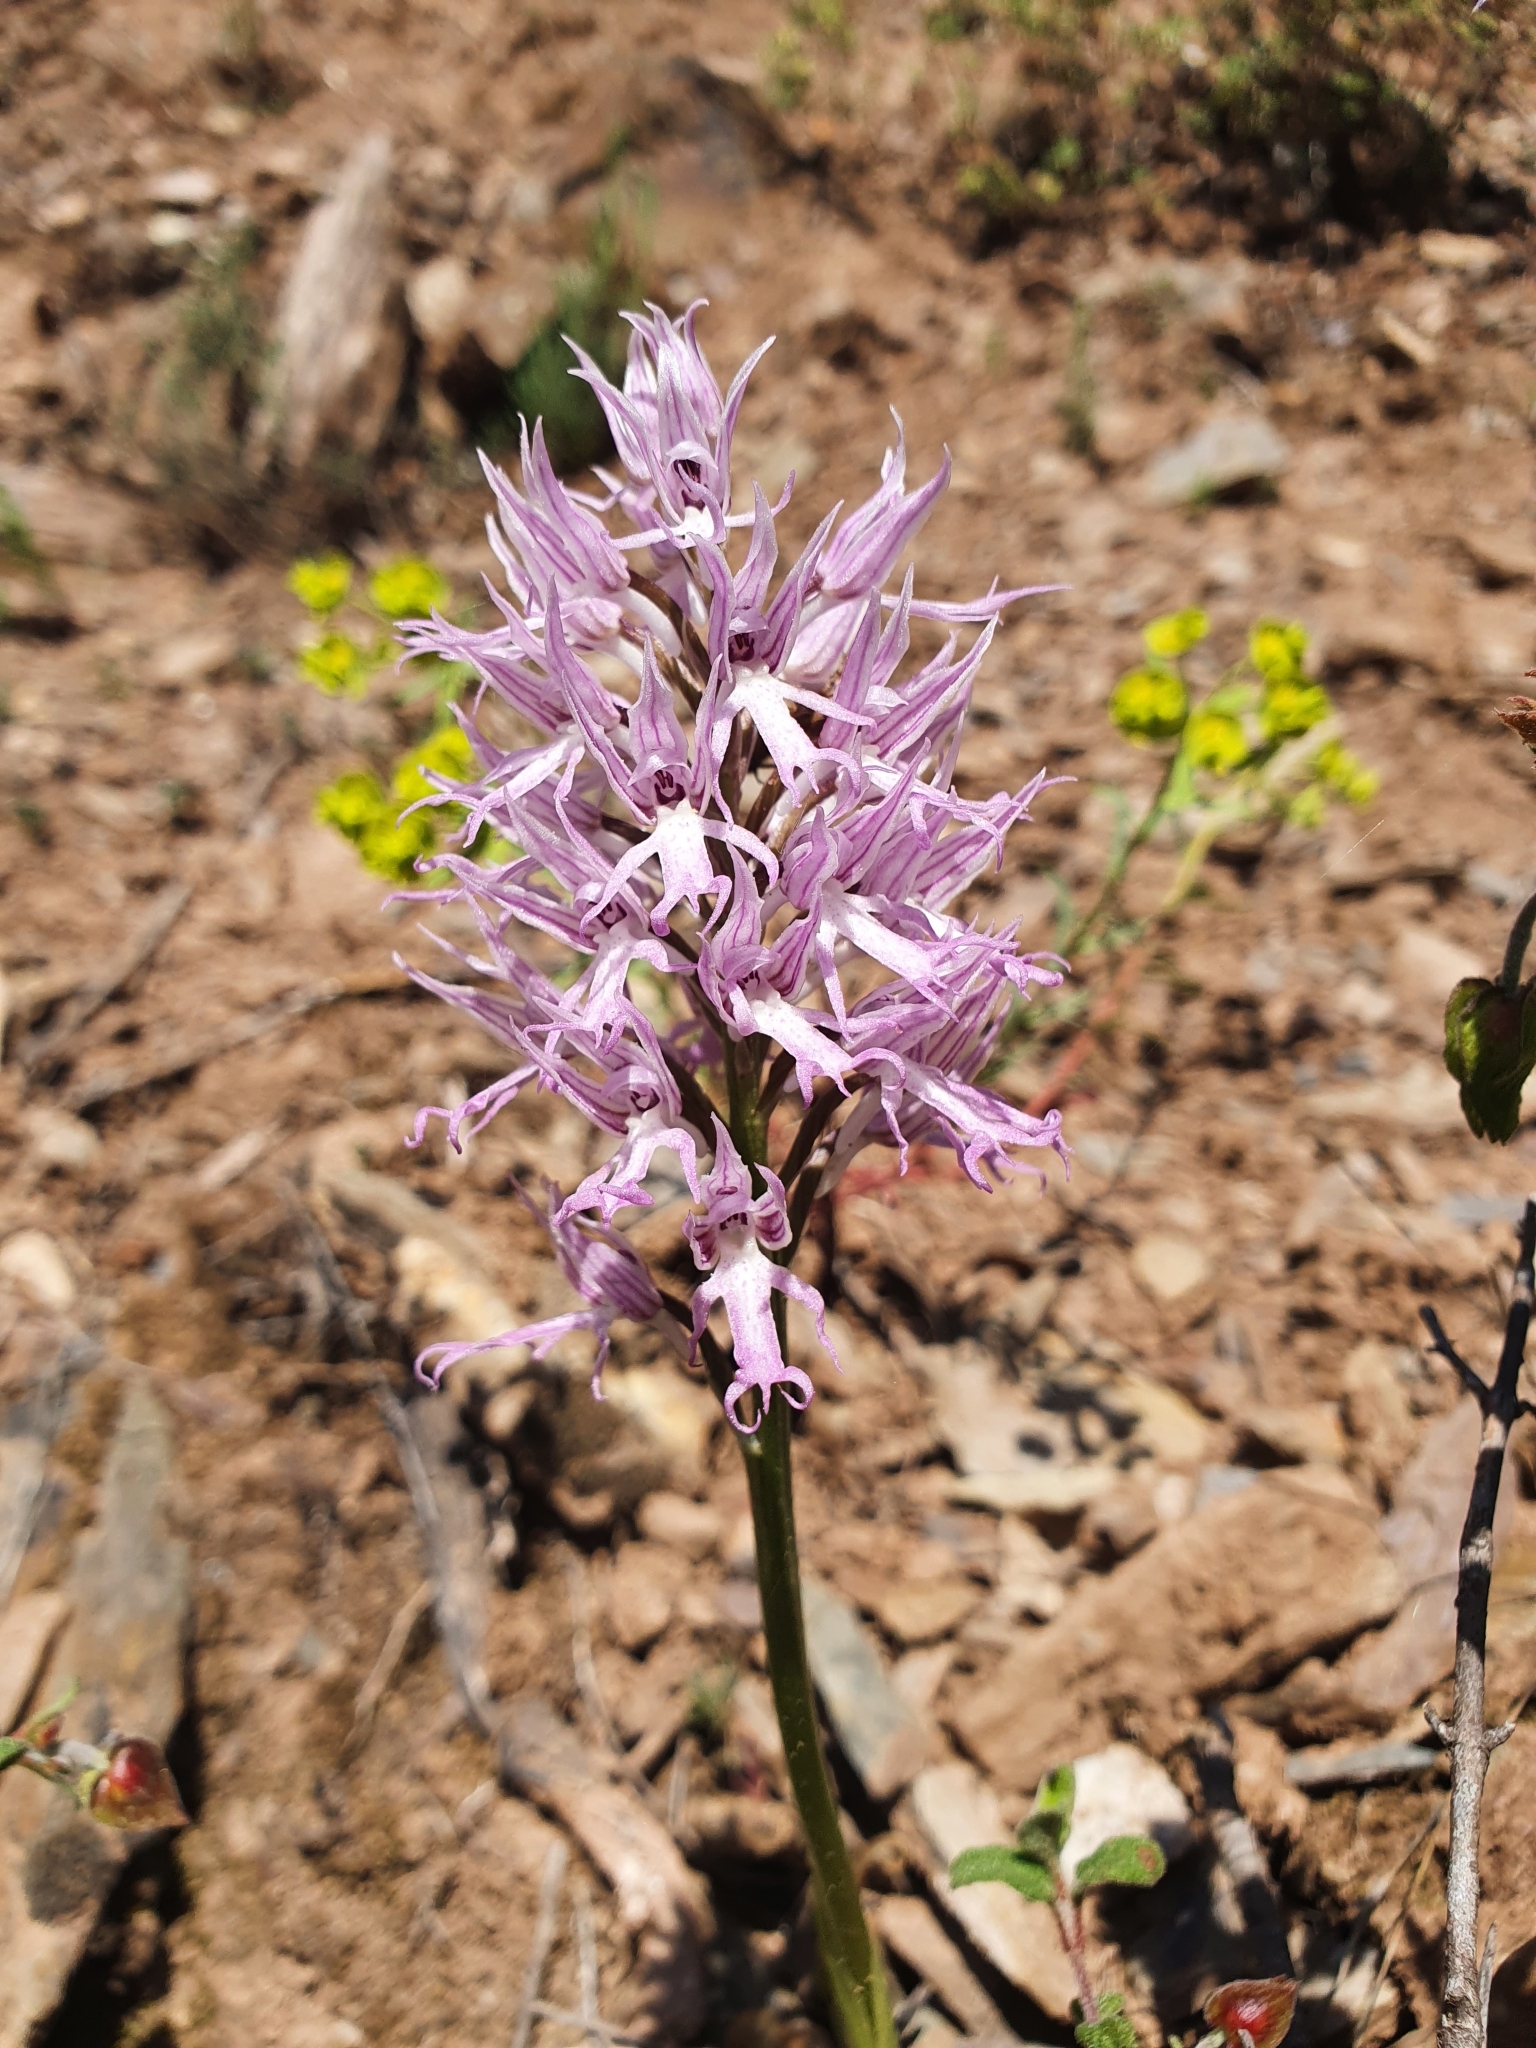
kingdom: Plantae
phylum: Tracheophyta
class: Liliopsida
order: Asparagales
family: Orchidaceae
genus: Orchis
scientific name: Orchis italica
